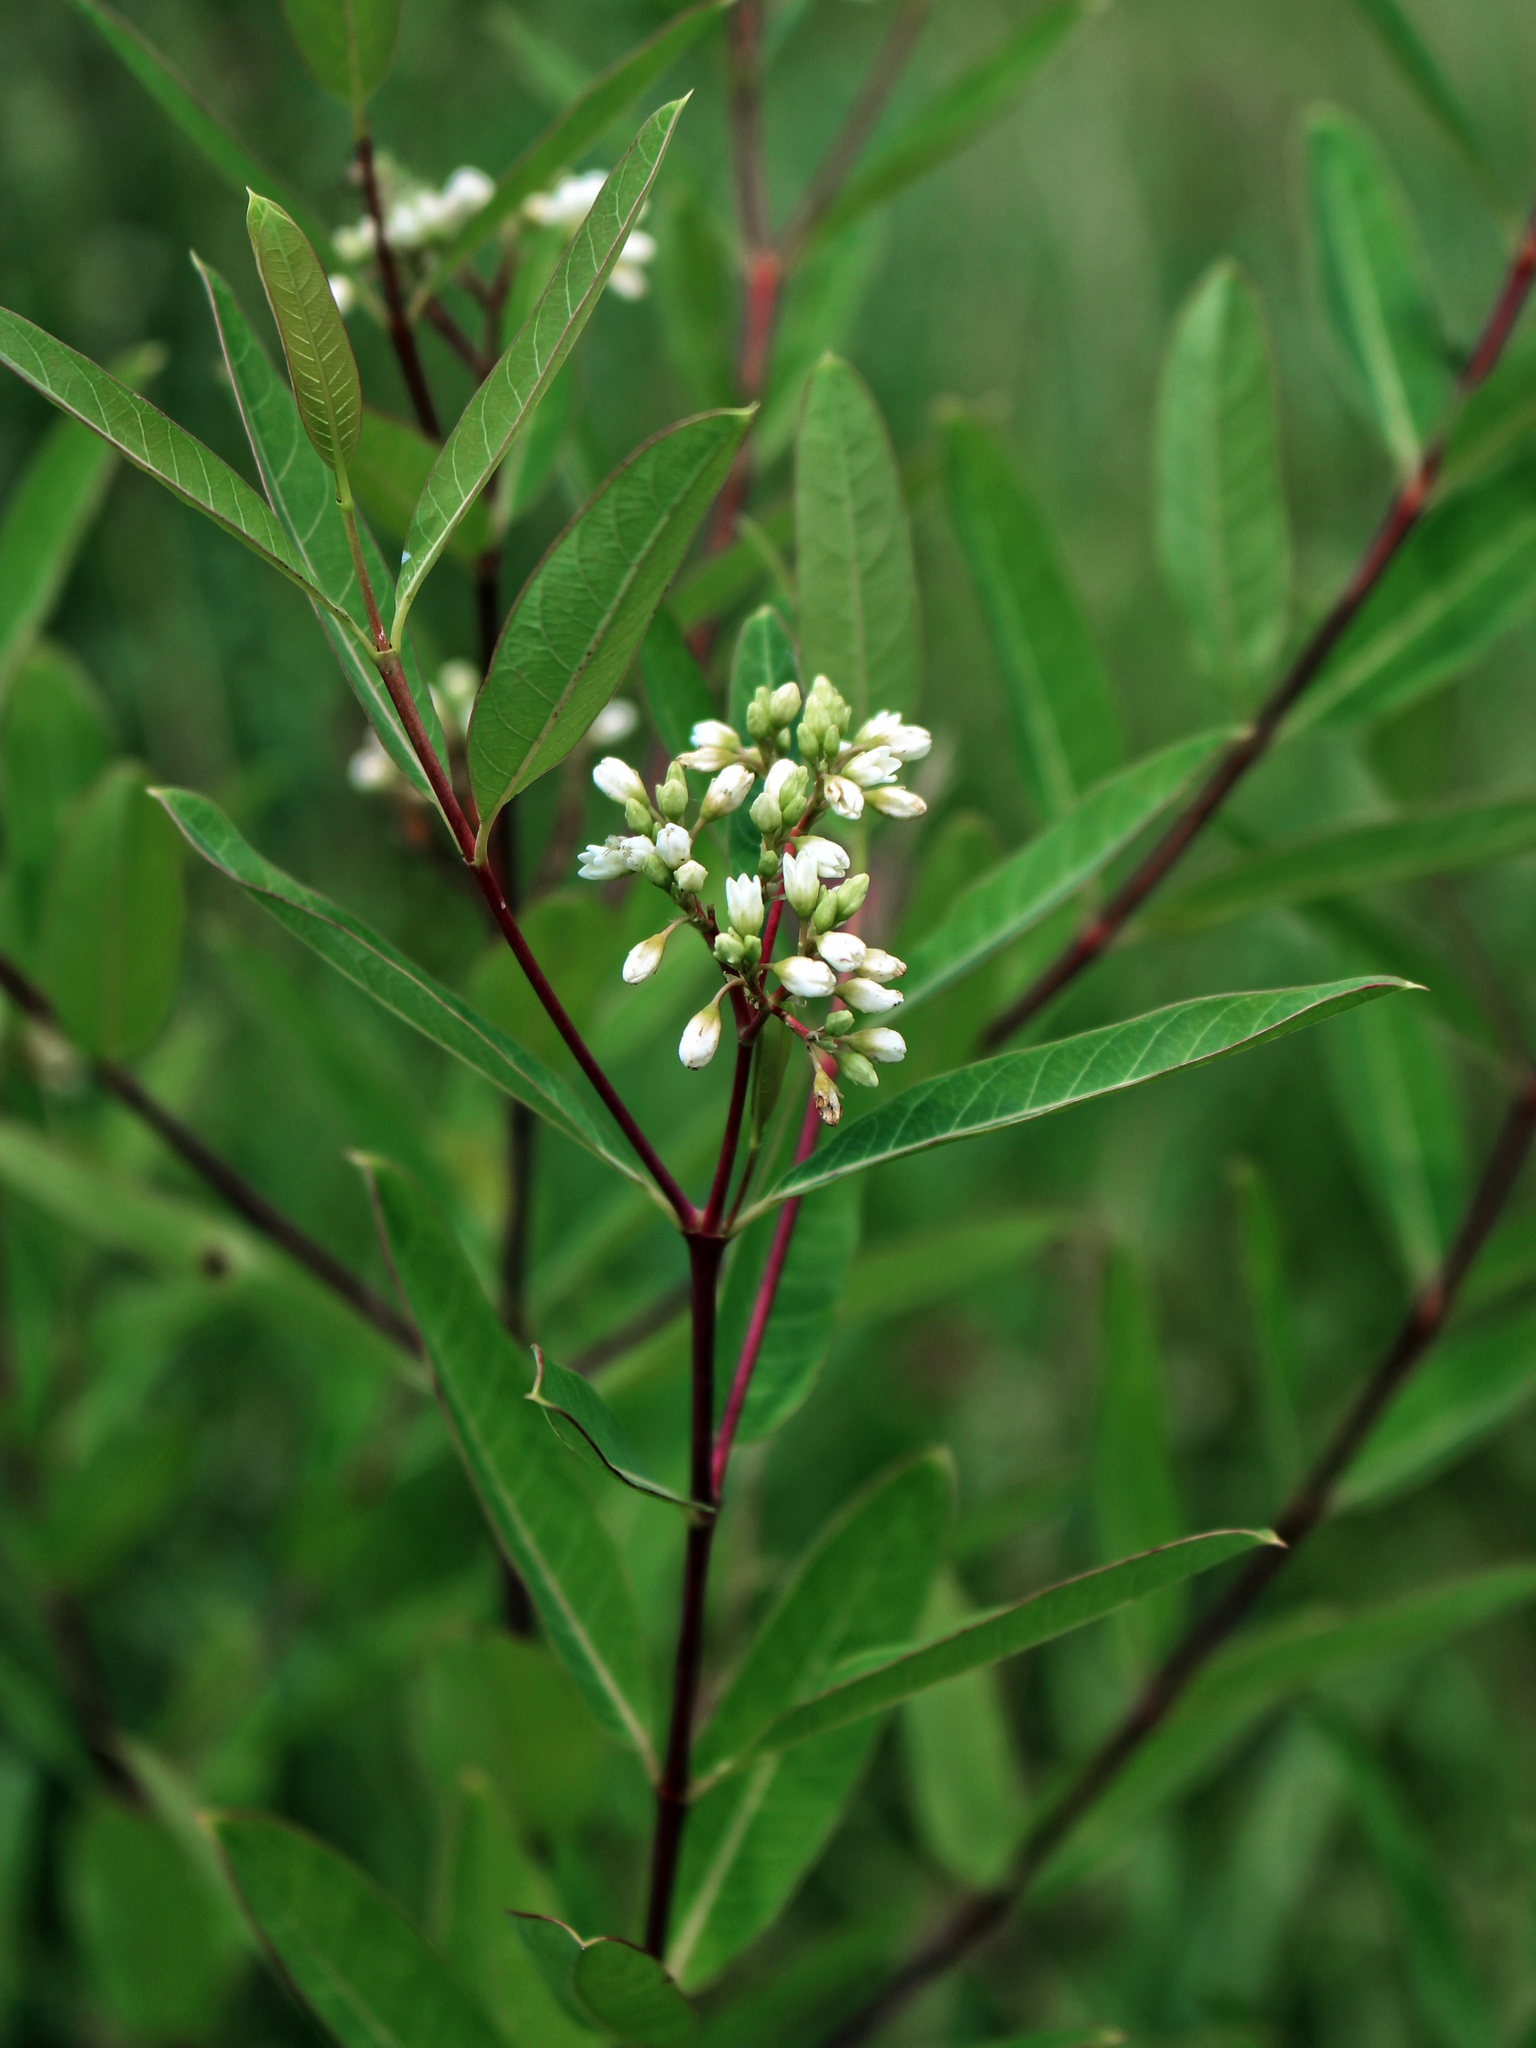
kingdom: Plantae
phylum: Tracheophyta
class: Magnoliopsida
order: Gentianales
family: Apocynaceae
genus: Apocynum
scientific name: Apocynum cannabinum
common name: Hemp dogbane
